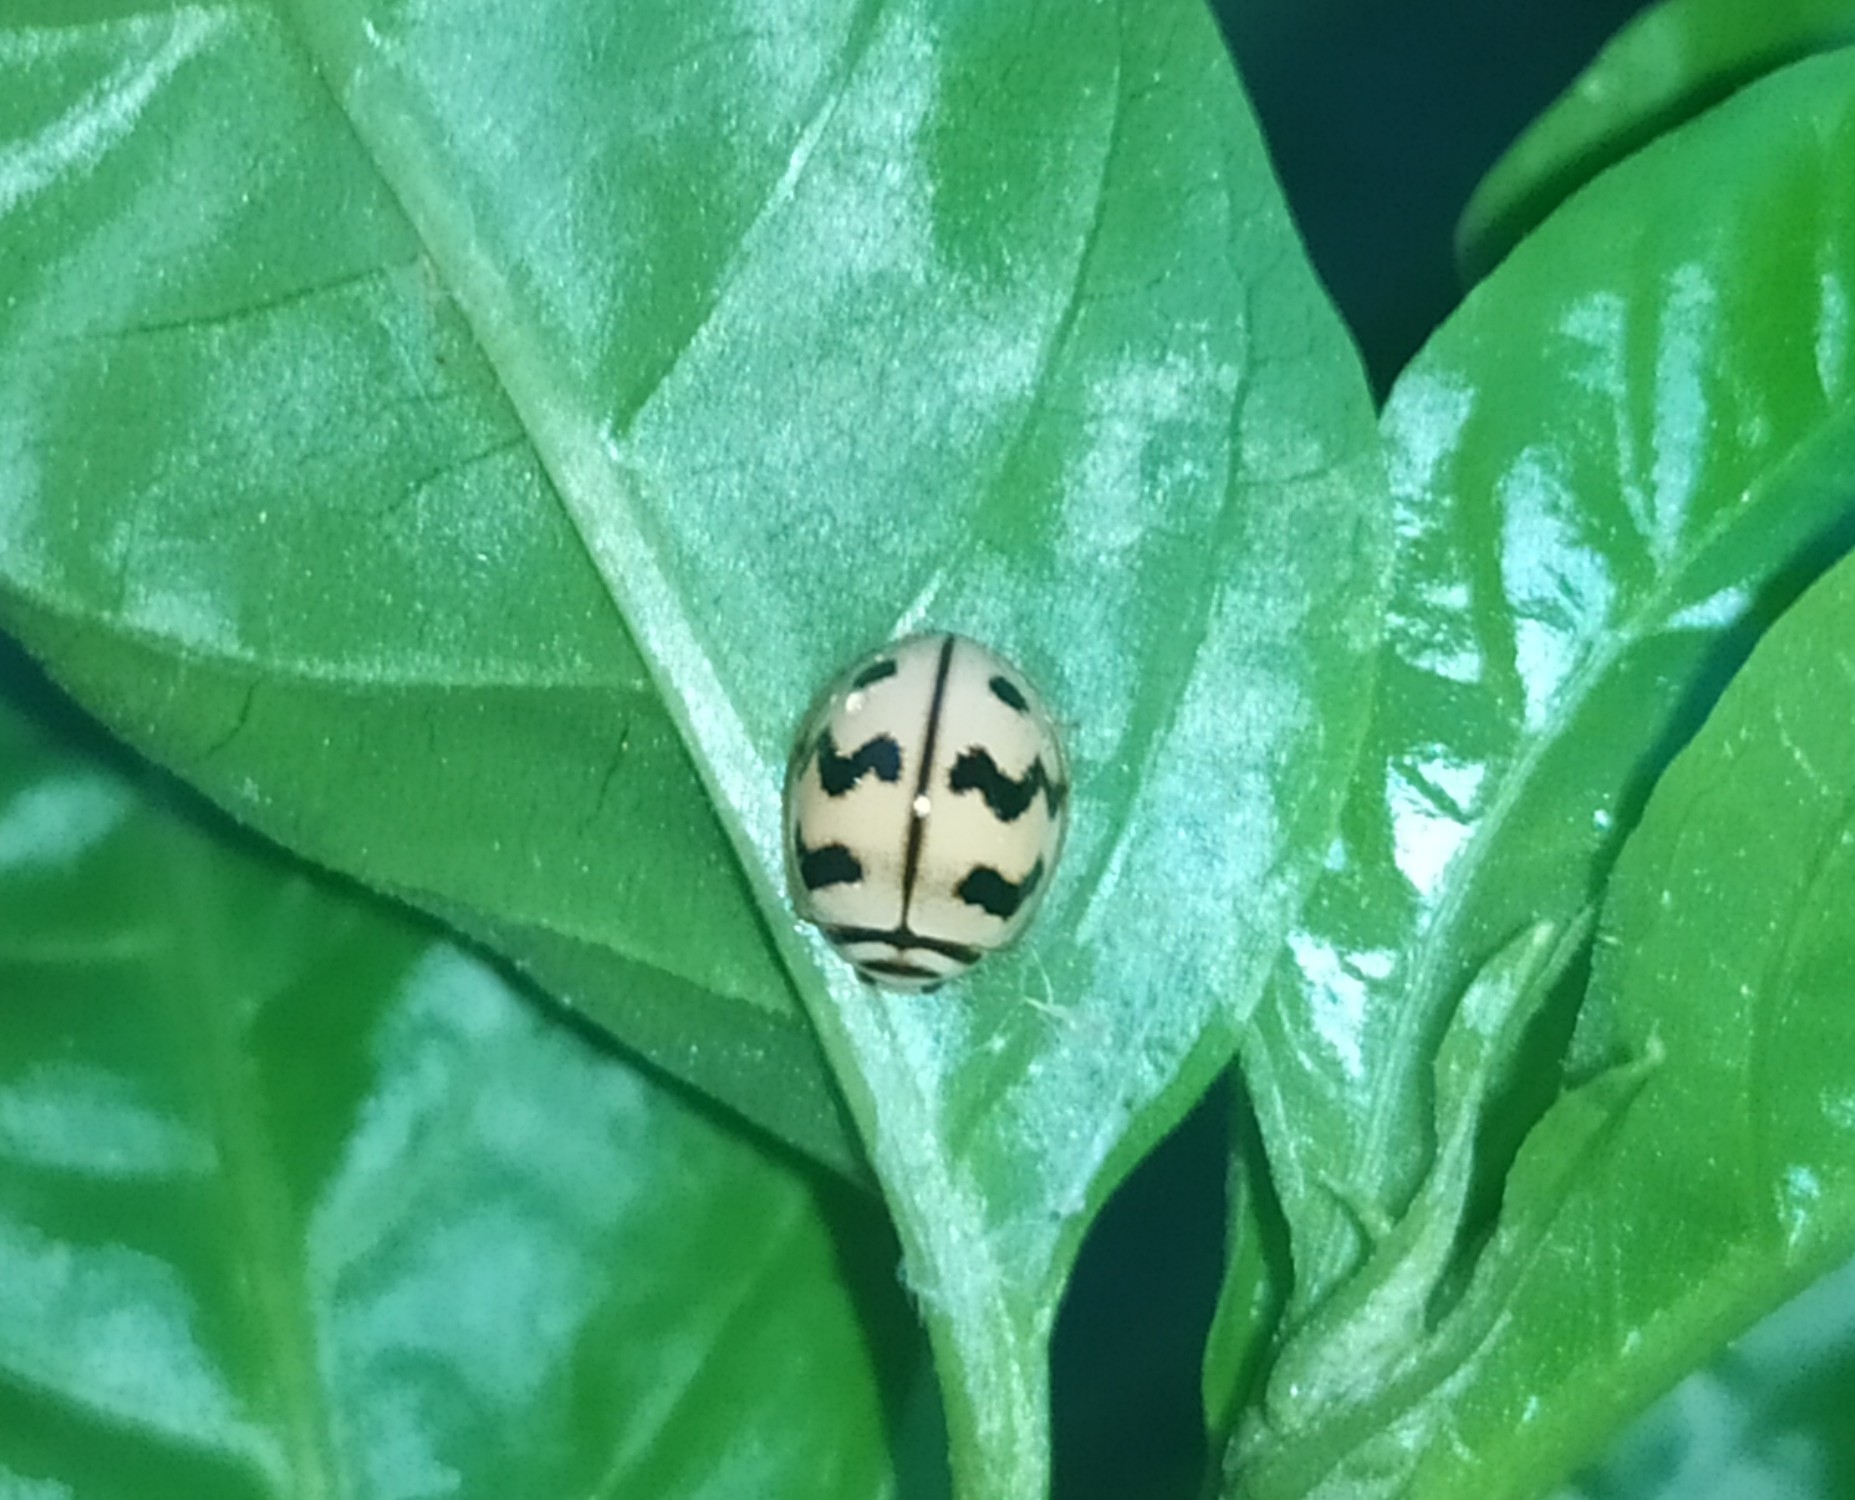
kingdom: Animalia
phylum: Arthropoda
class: Insecta
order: Coleoptera
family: Coccinellidae
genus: Cheilomenes
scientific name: Cheilomenes sexmaculata
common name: Ladybird beetle
